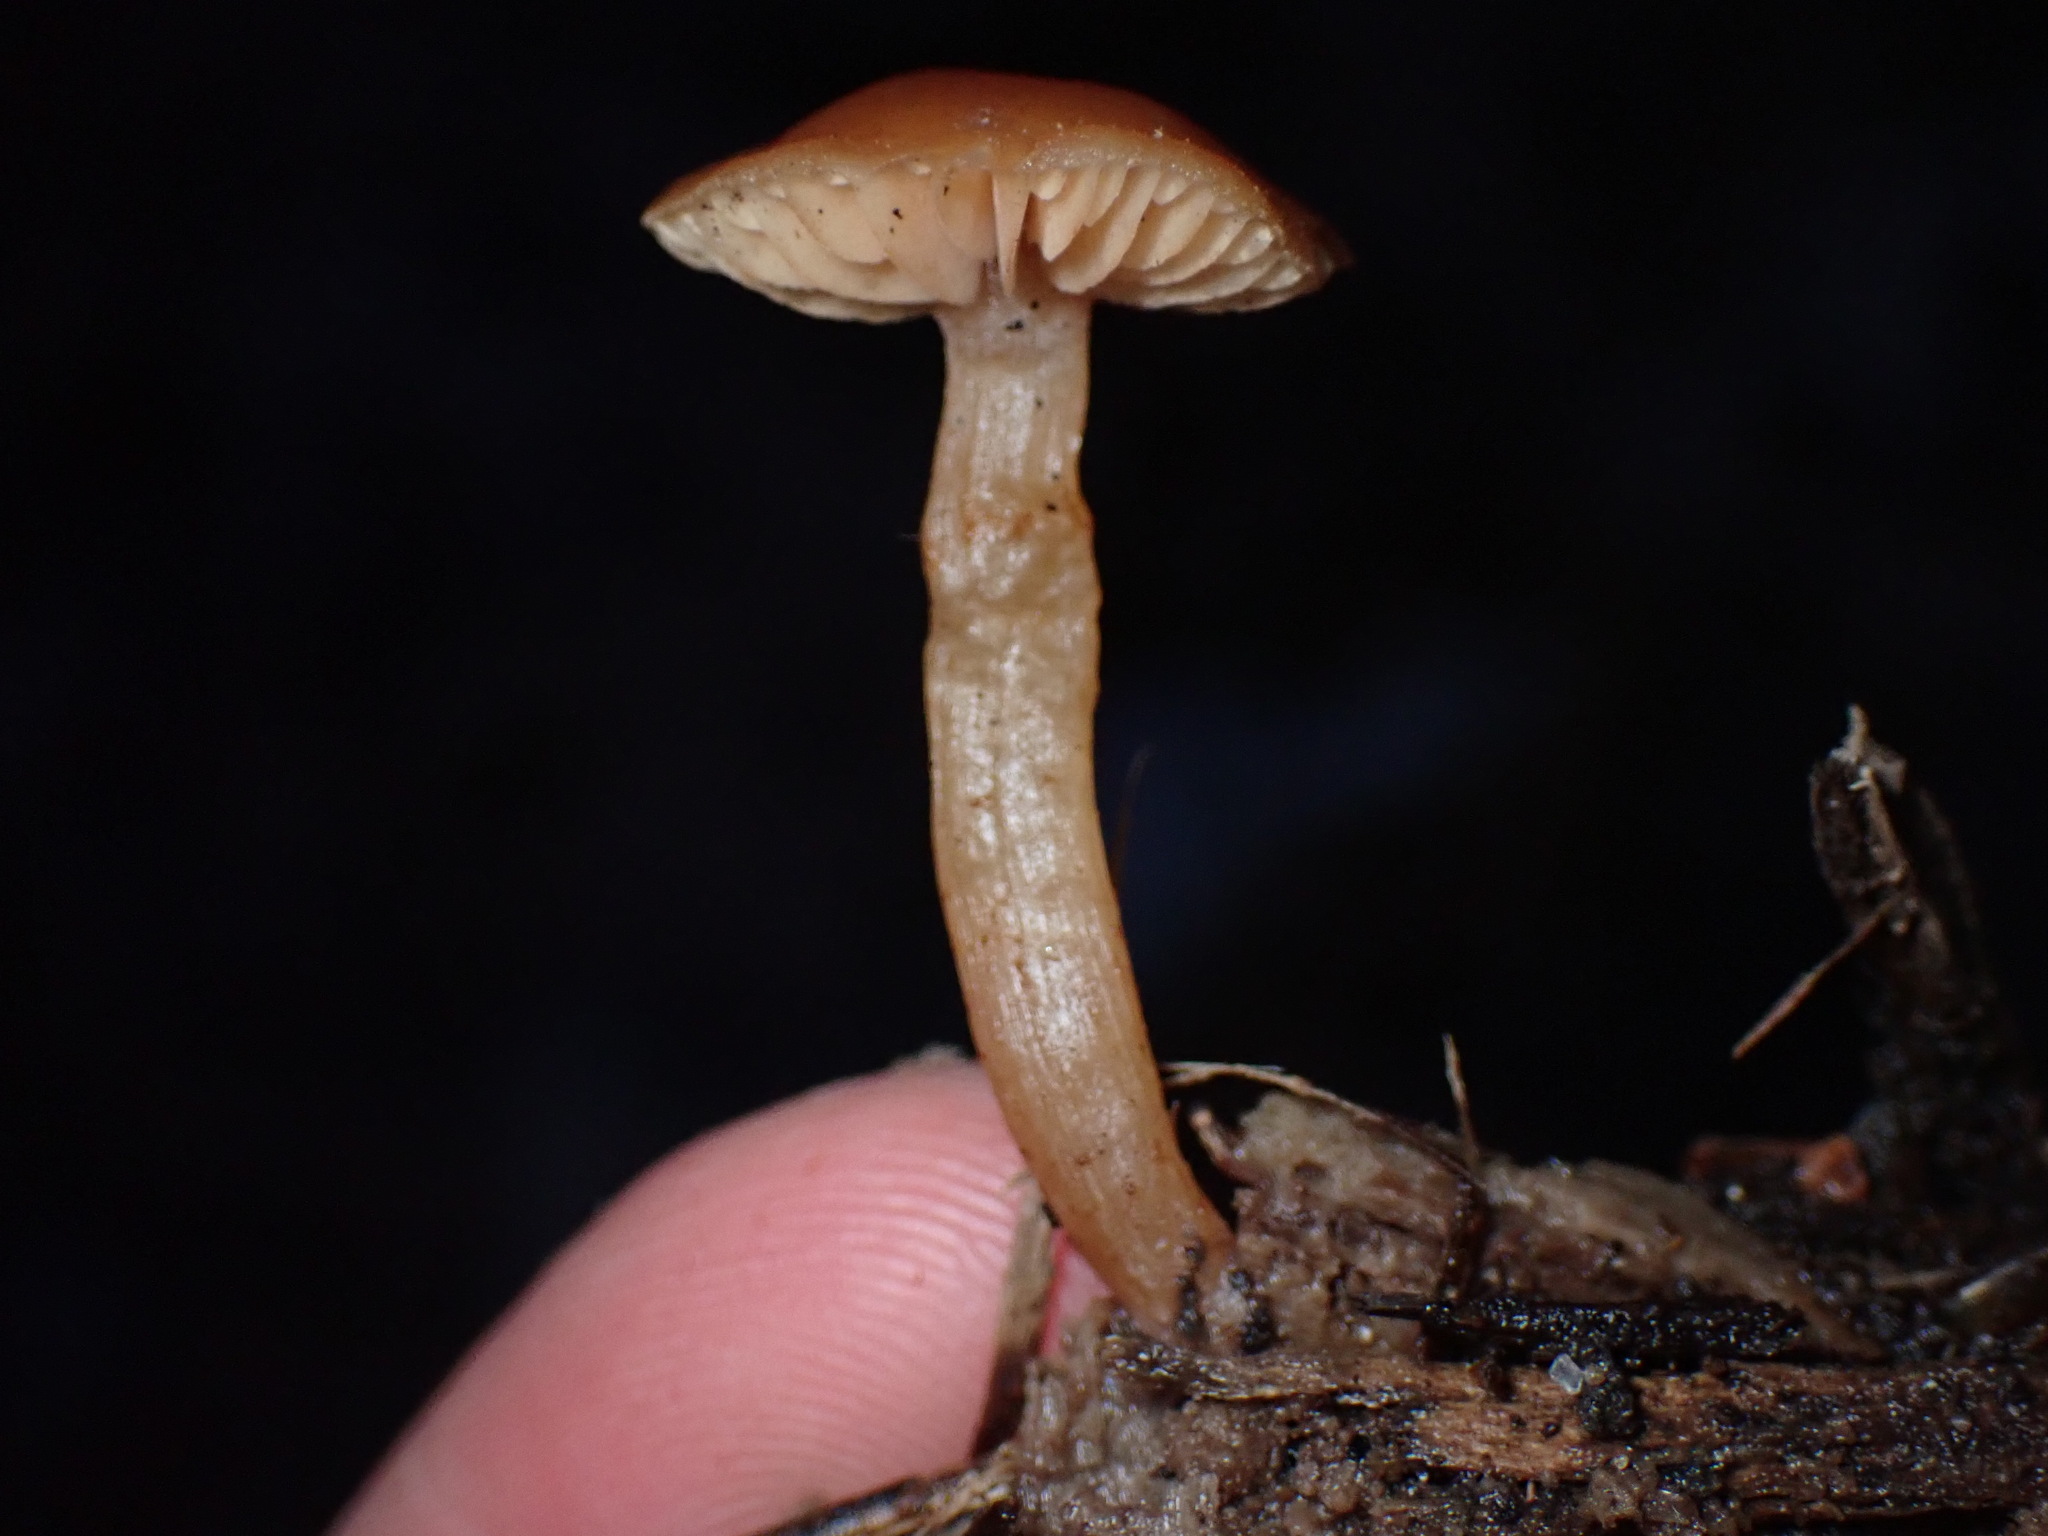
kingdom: Fungi
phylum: Basidiomycota
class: Agaricomycetes
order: Agaricales
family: Tubariaceae
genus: Tubaria
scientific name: Tubaria furfuracea
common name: Scurfy twiglet
